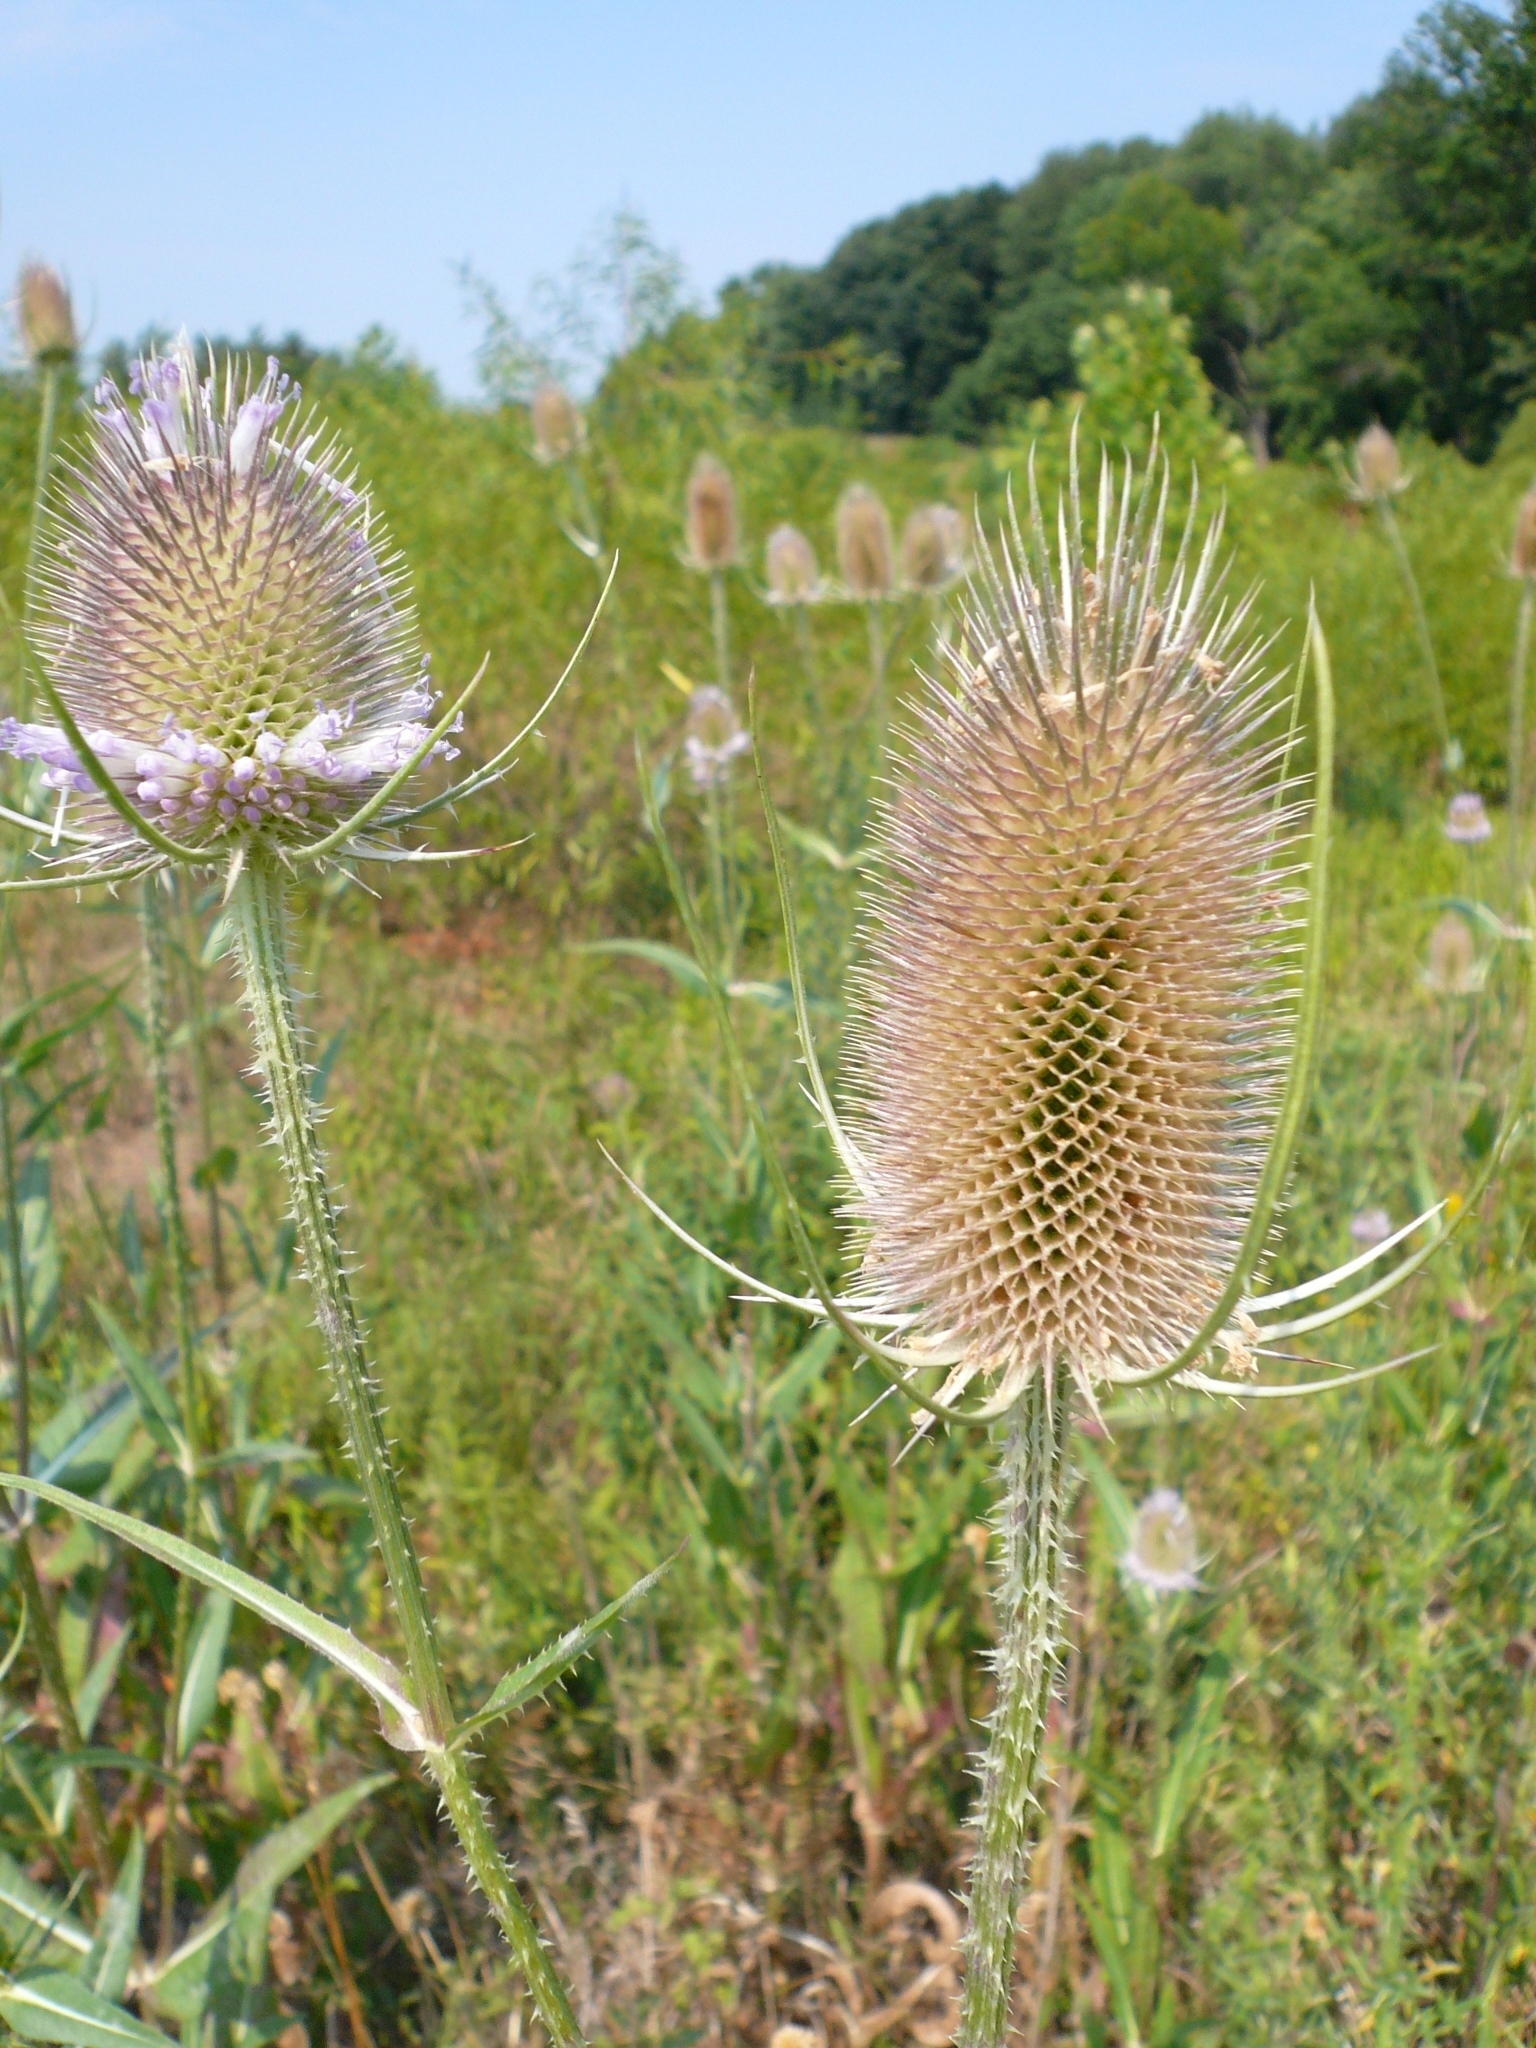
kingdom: Plantae
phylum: Tracheophyta
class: Magnoliopsida
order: Dipsacales
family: Caprifoliaceae
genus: Dipsacus
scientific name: Dipsacus fullonum
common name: Teasel
